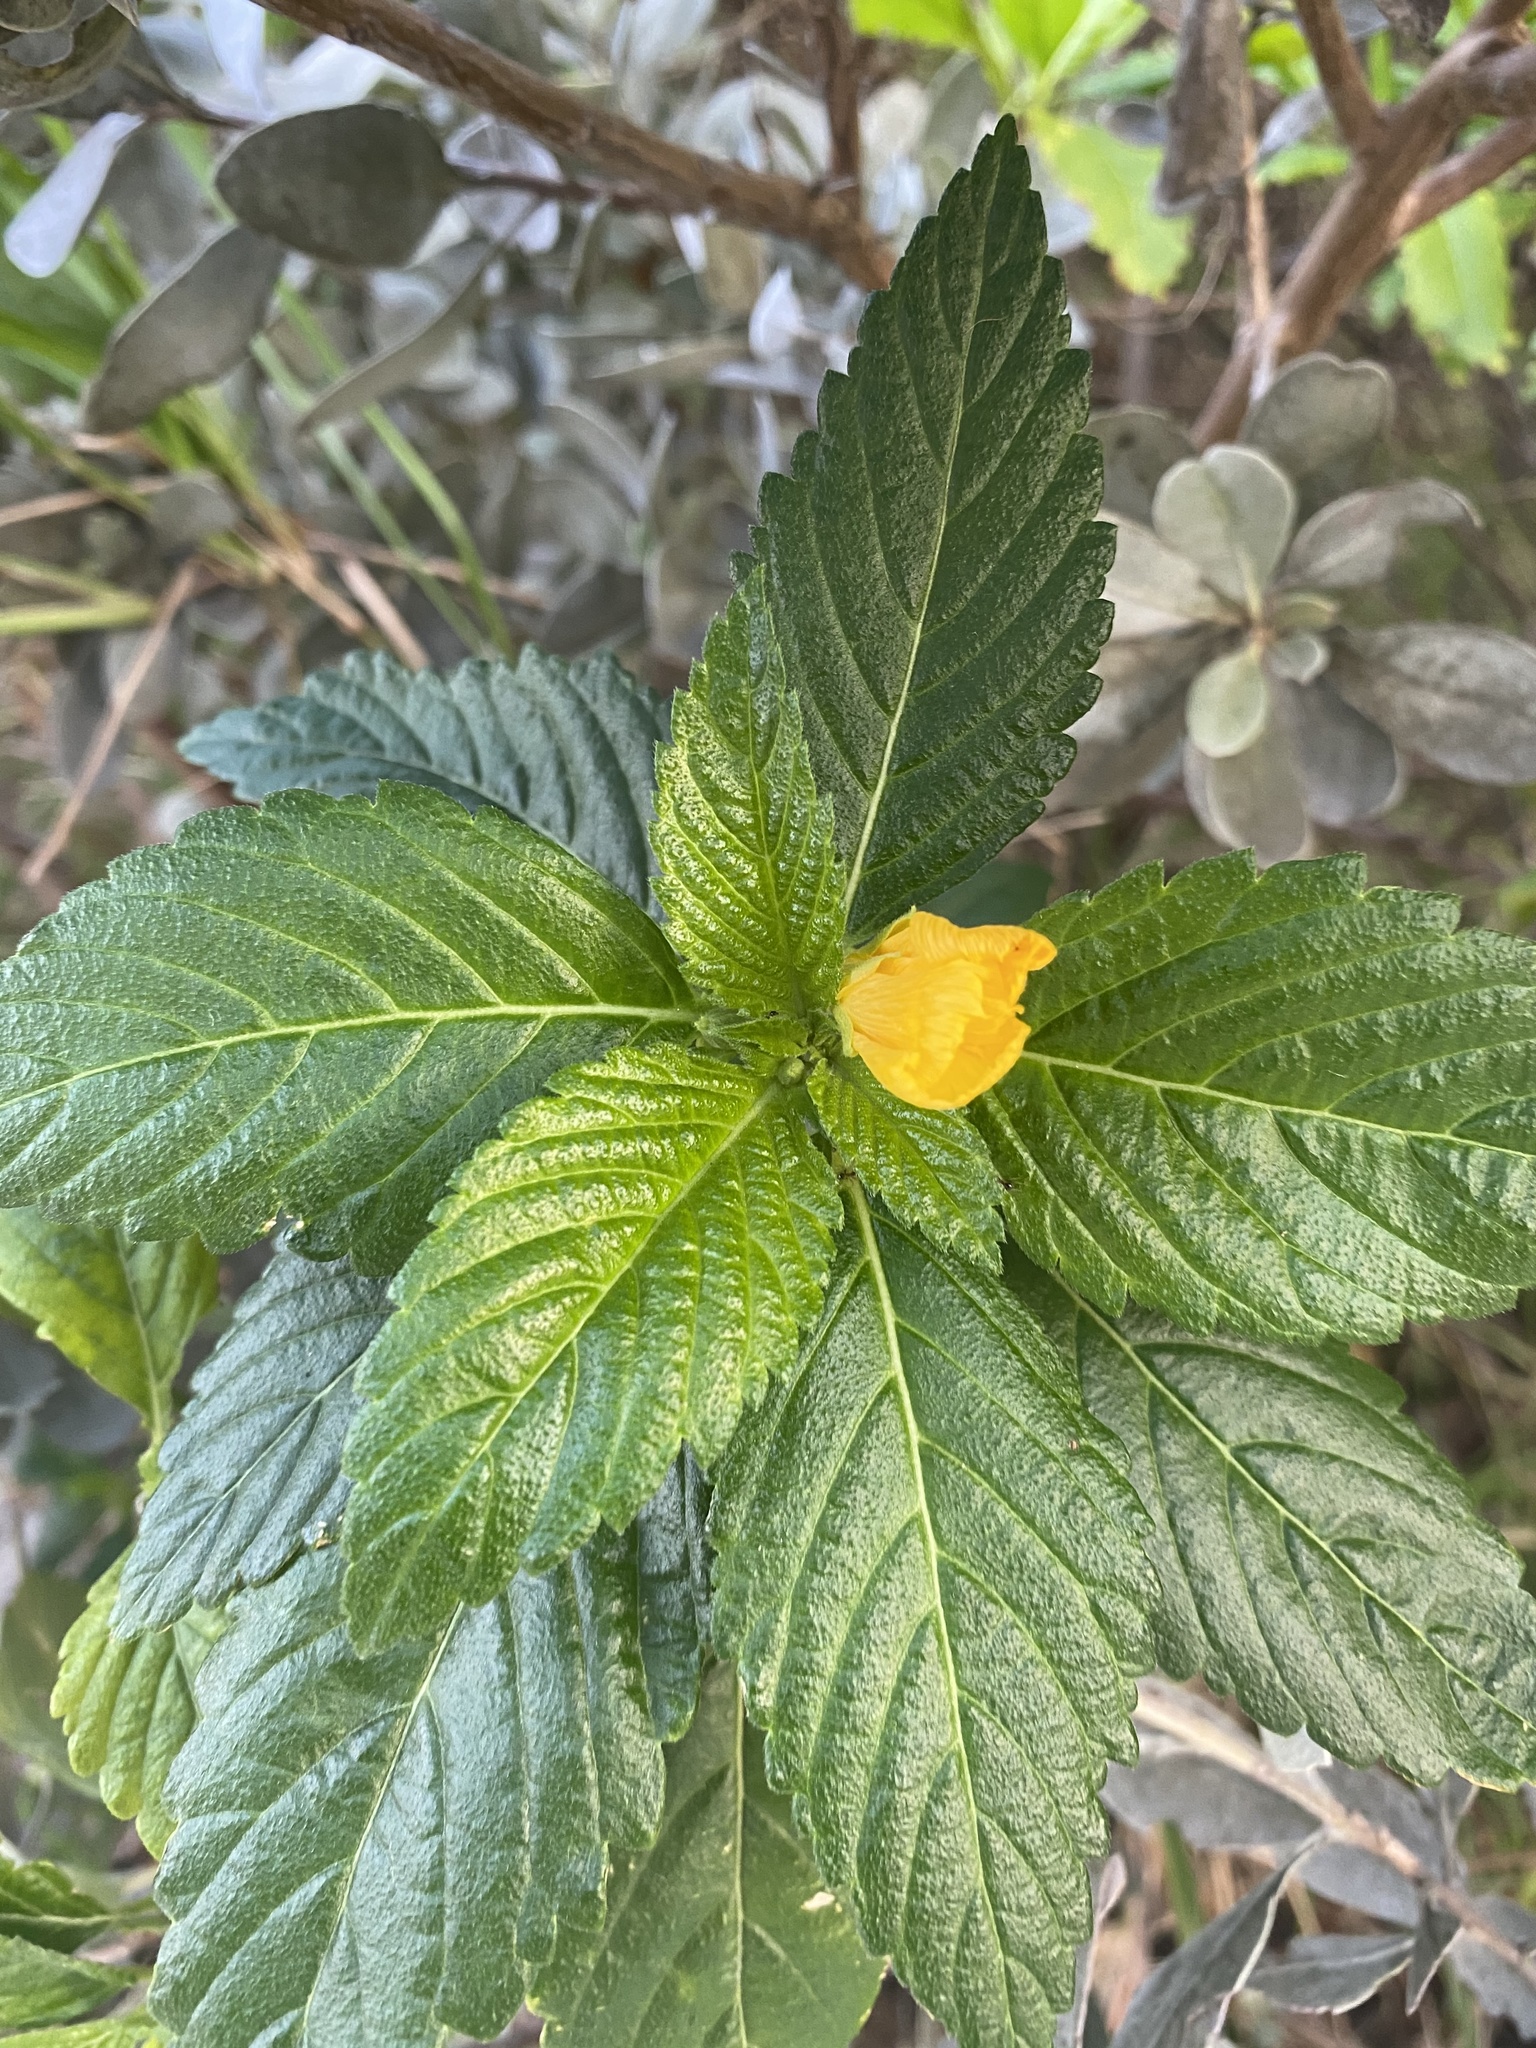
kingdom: Plantae
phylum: Tracheophyta
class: Magnoliopsida
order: Malpighiales
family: Turneraceae
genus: Turnera
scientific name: Turnera ulmifolia
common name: Ramgoat dashalong
